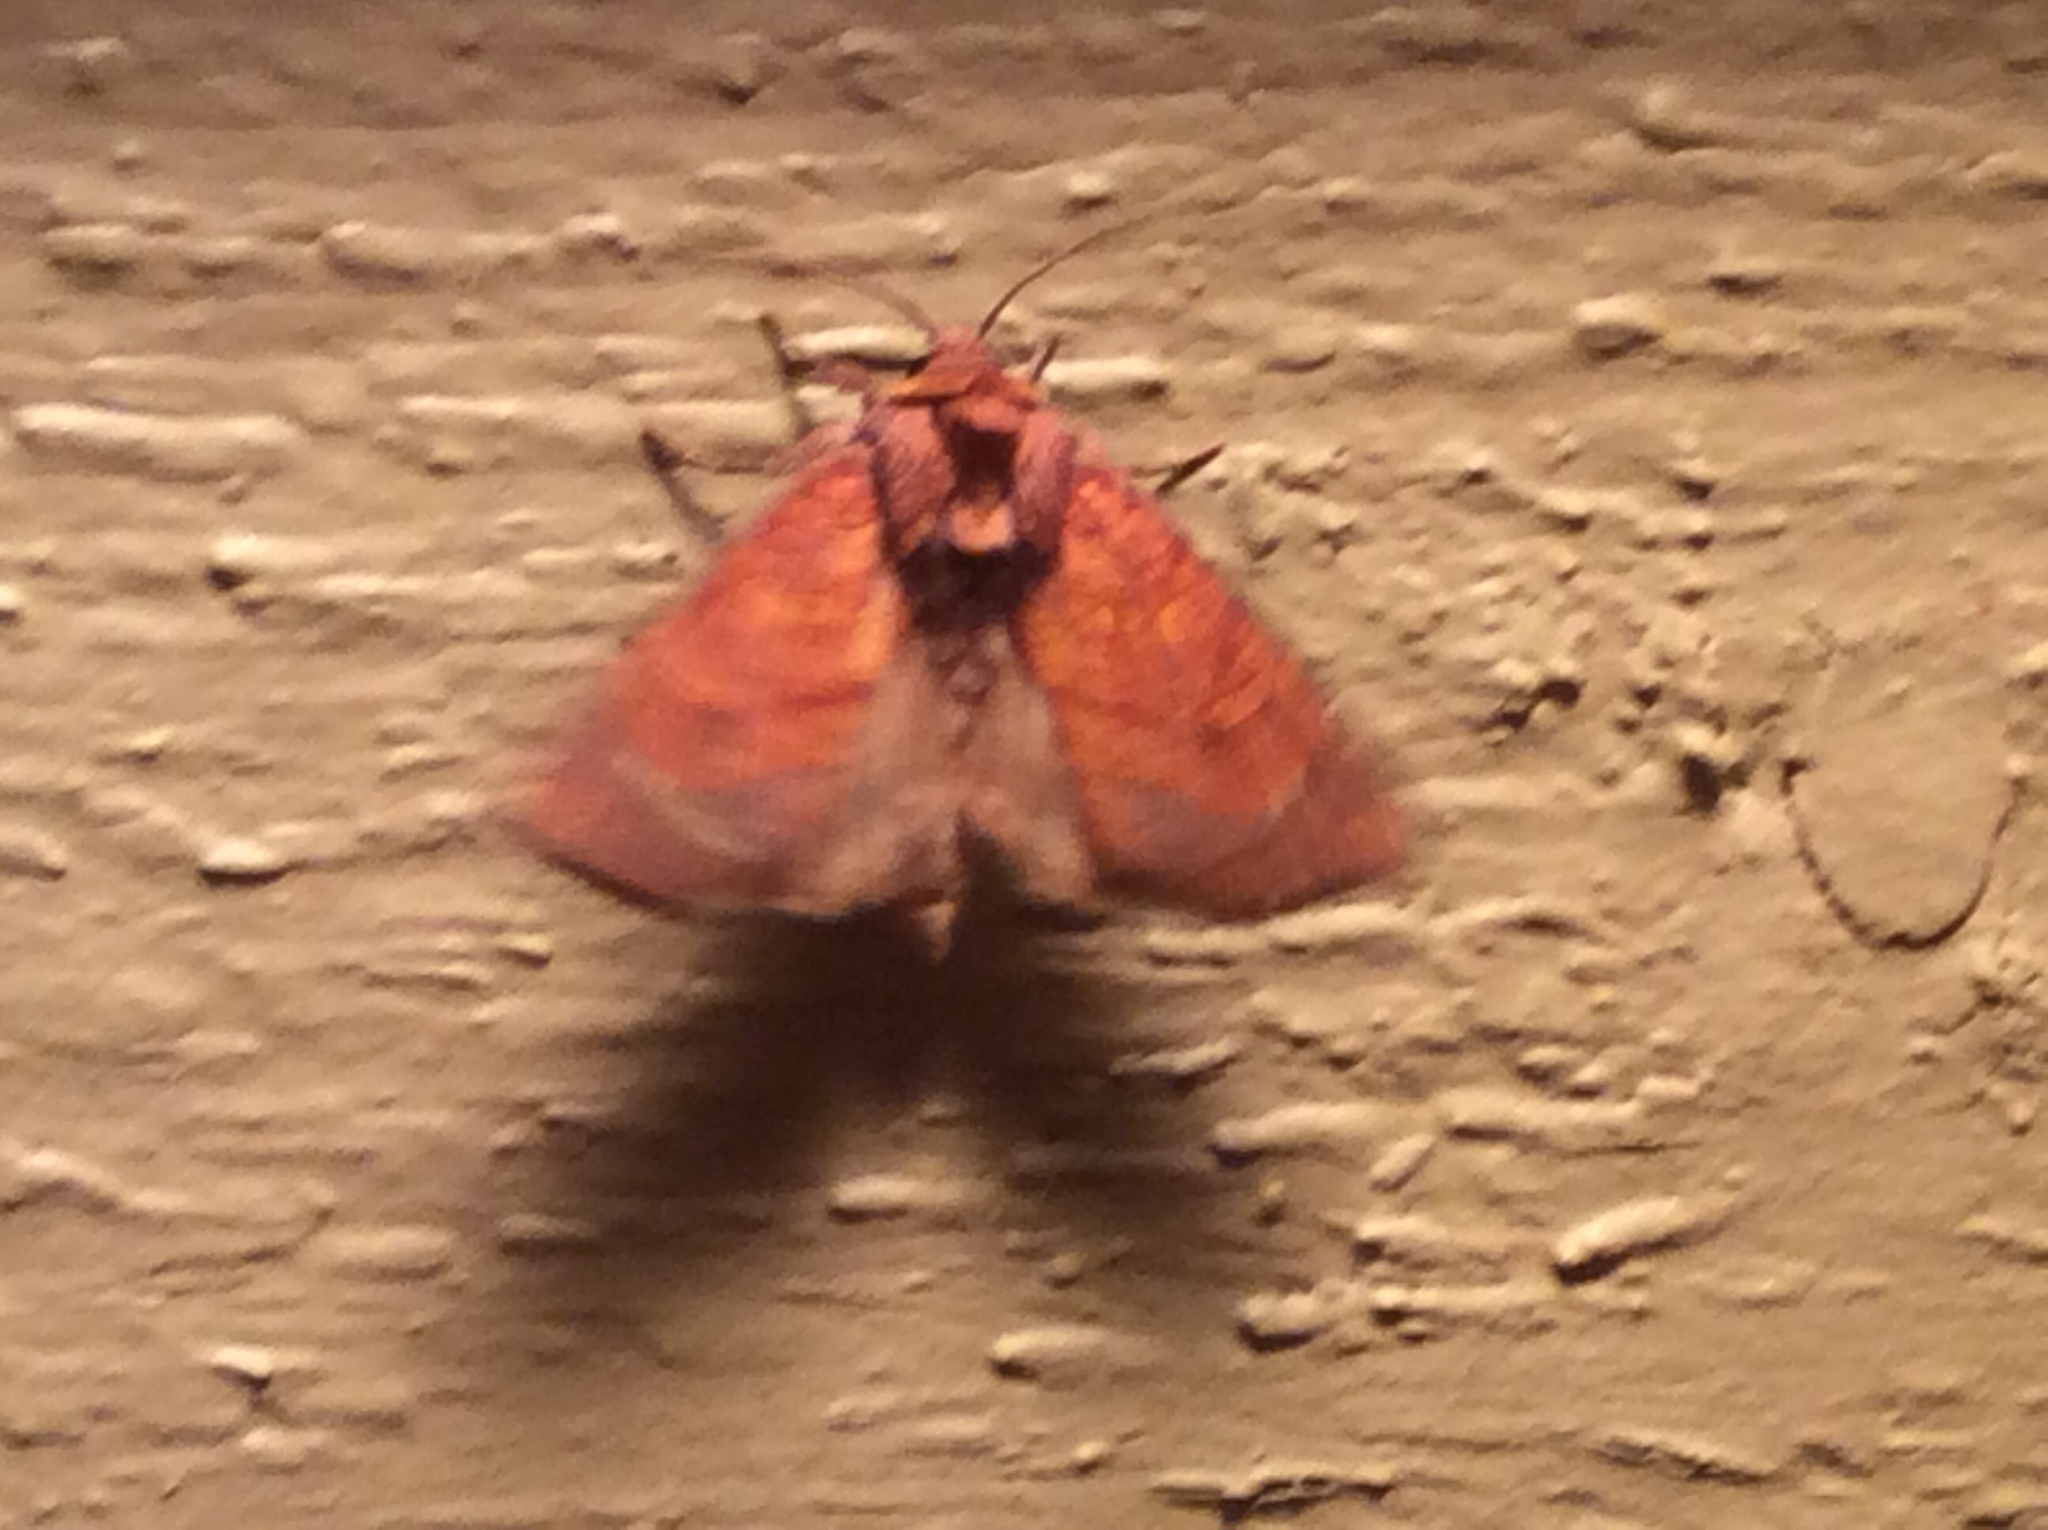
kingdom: Animalia
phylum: Arthropoda
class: Insecta
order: Lepidoptera
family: Noctuidae
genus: Papaipema
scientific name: Papaipema inquaesita
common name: Sensitive fern borer moth
